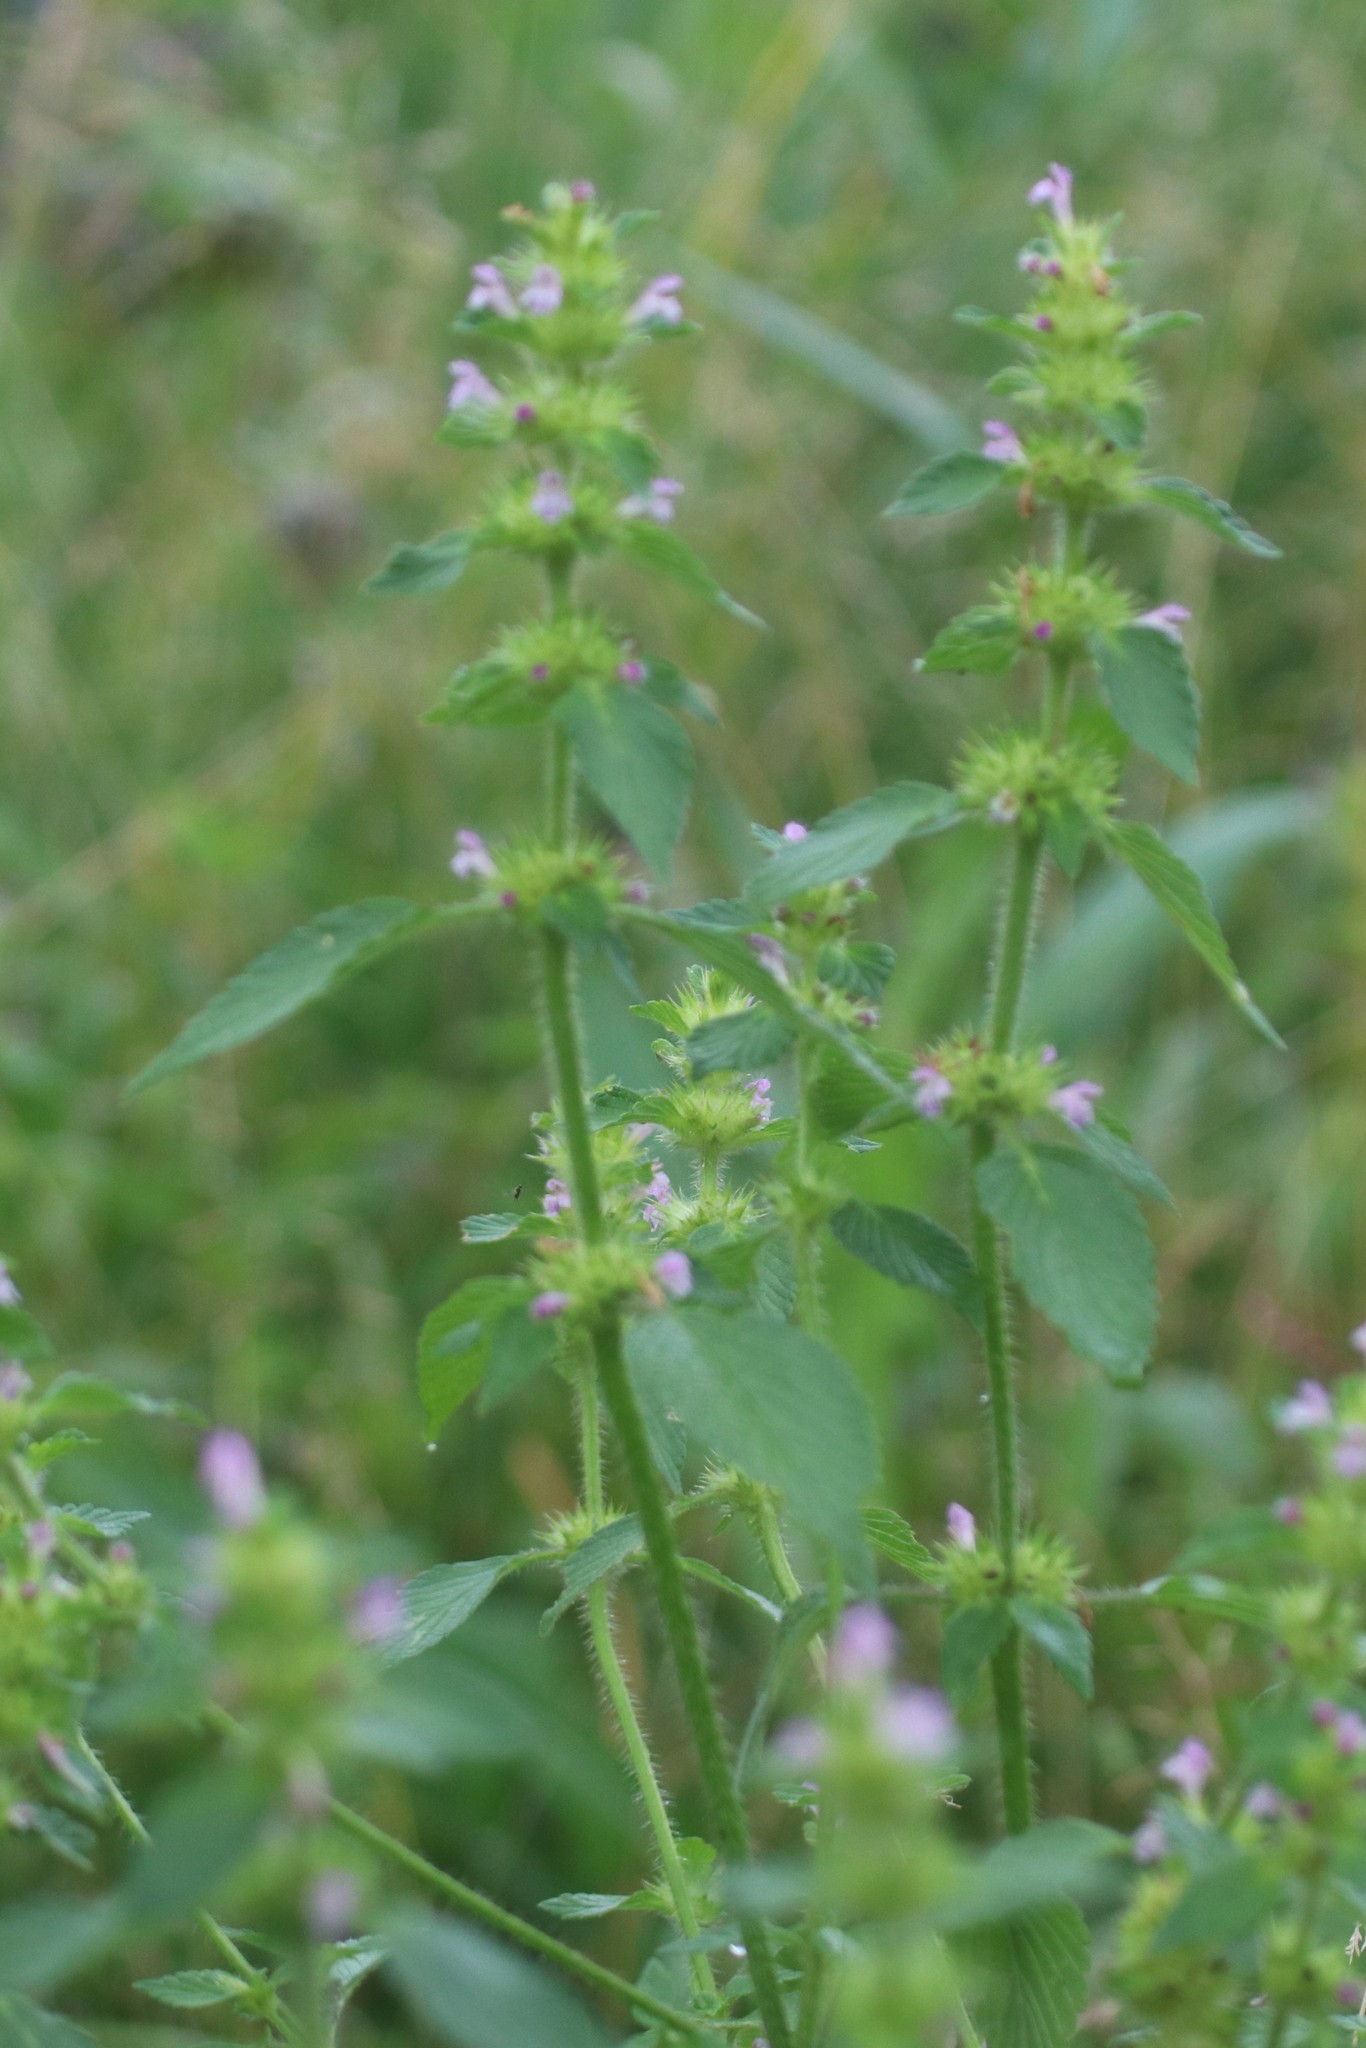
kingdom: Plantae
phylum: Tracheophyta
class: Magnoliopsida
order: Lamiales
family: Lamiaceae
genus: Galeopsis
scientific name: Galeopsis bifida
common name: Bifid hemp-nettle
